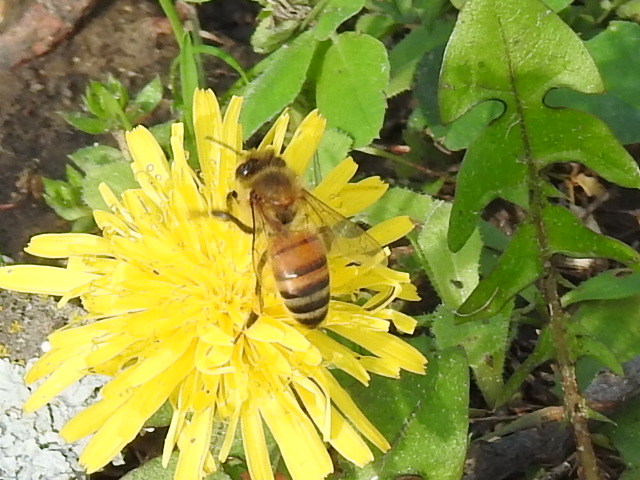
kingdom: Animalia
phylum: Arthropoda
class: Insecta
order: Hymenoptera
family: Apidae
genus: Apis
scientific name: Apis mellifera
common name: Honey bee
